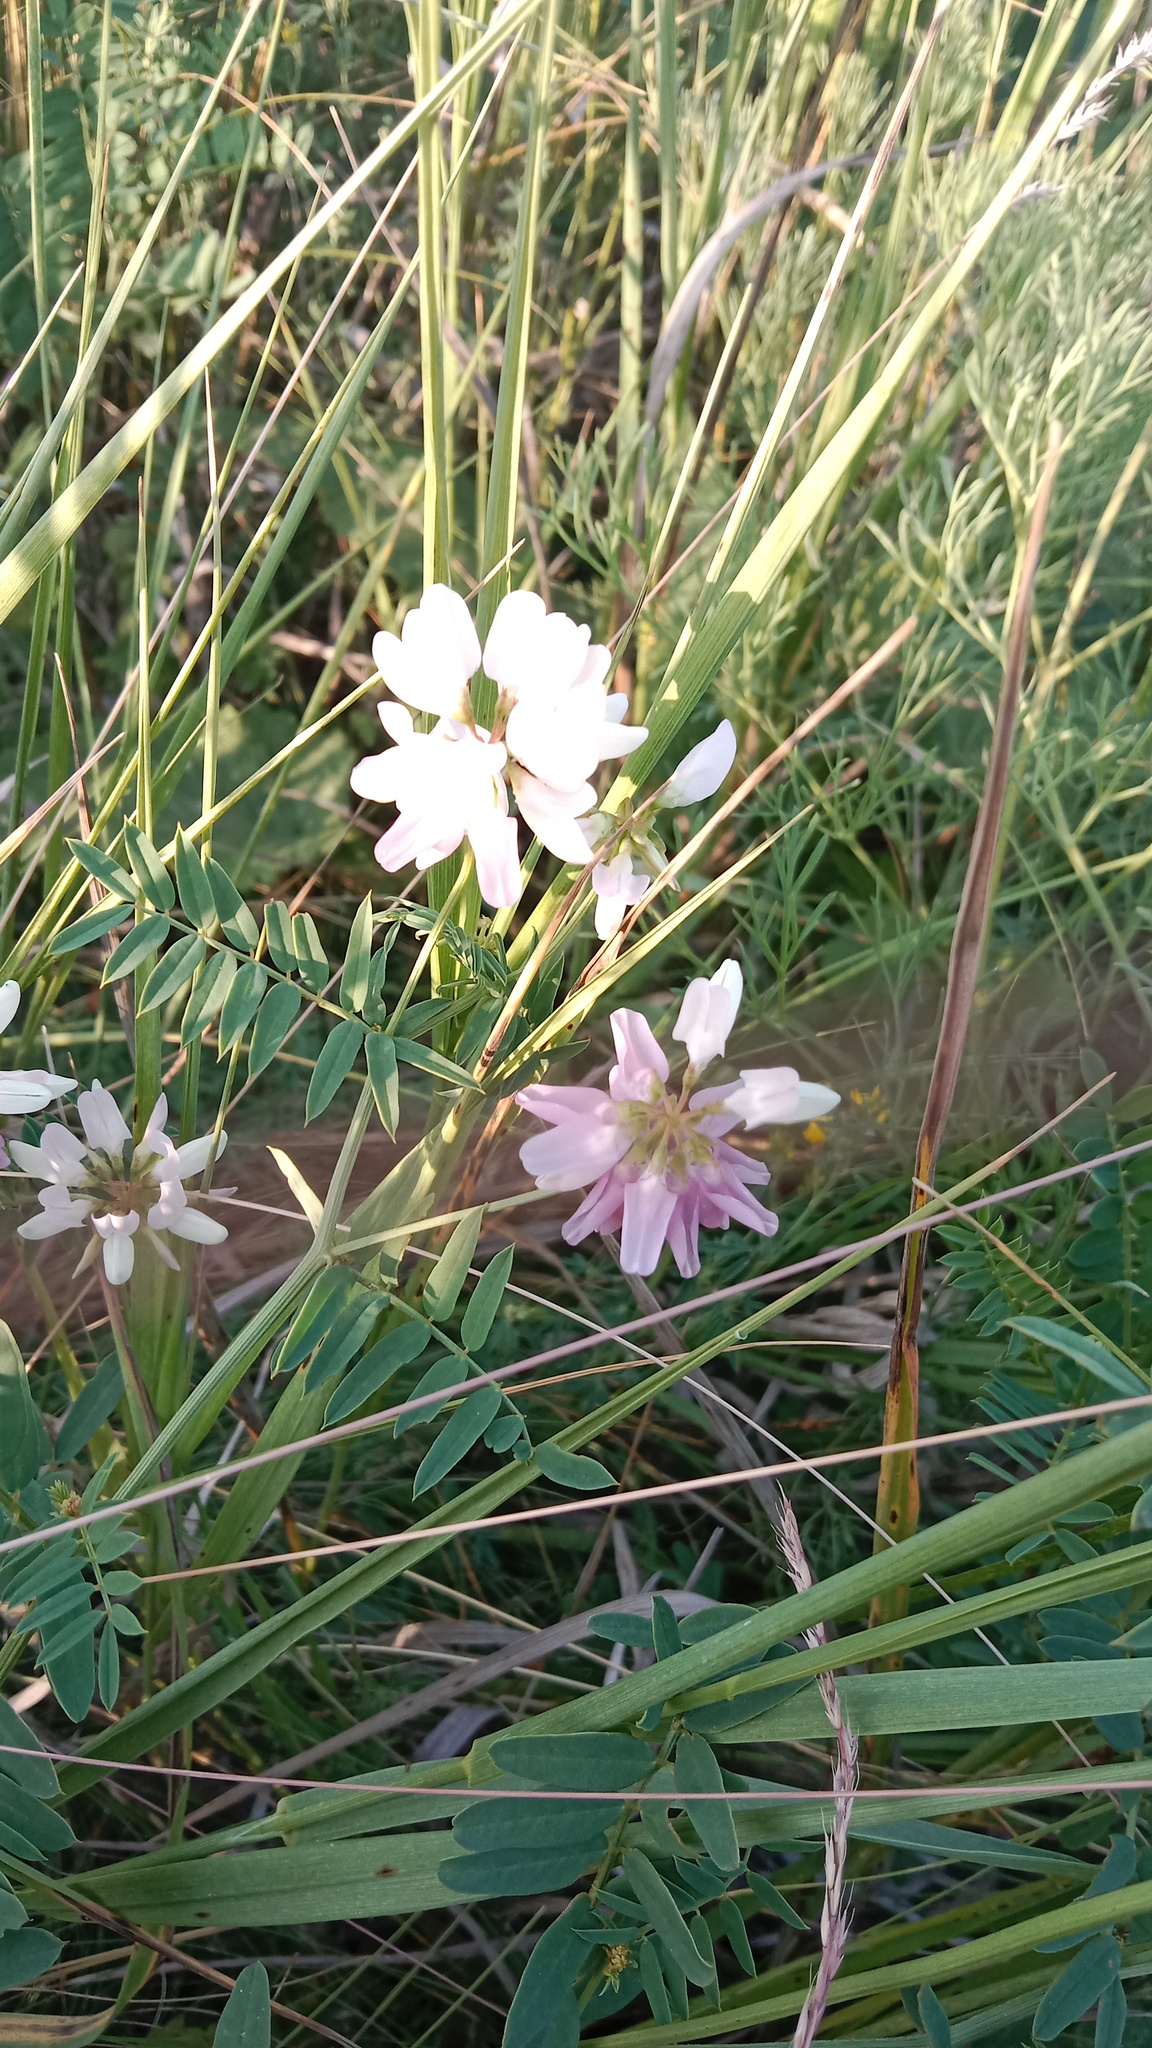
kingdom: Plantae
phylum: Tracheophyta
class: Magnoliopsida
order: Fabales
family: Fabaceae
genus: Coronilla
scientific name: Coronilla varia
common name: Crownvetch
